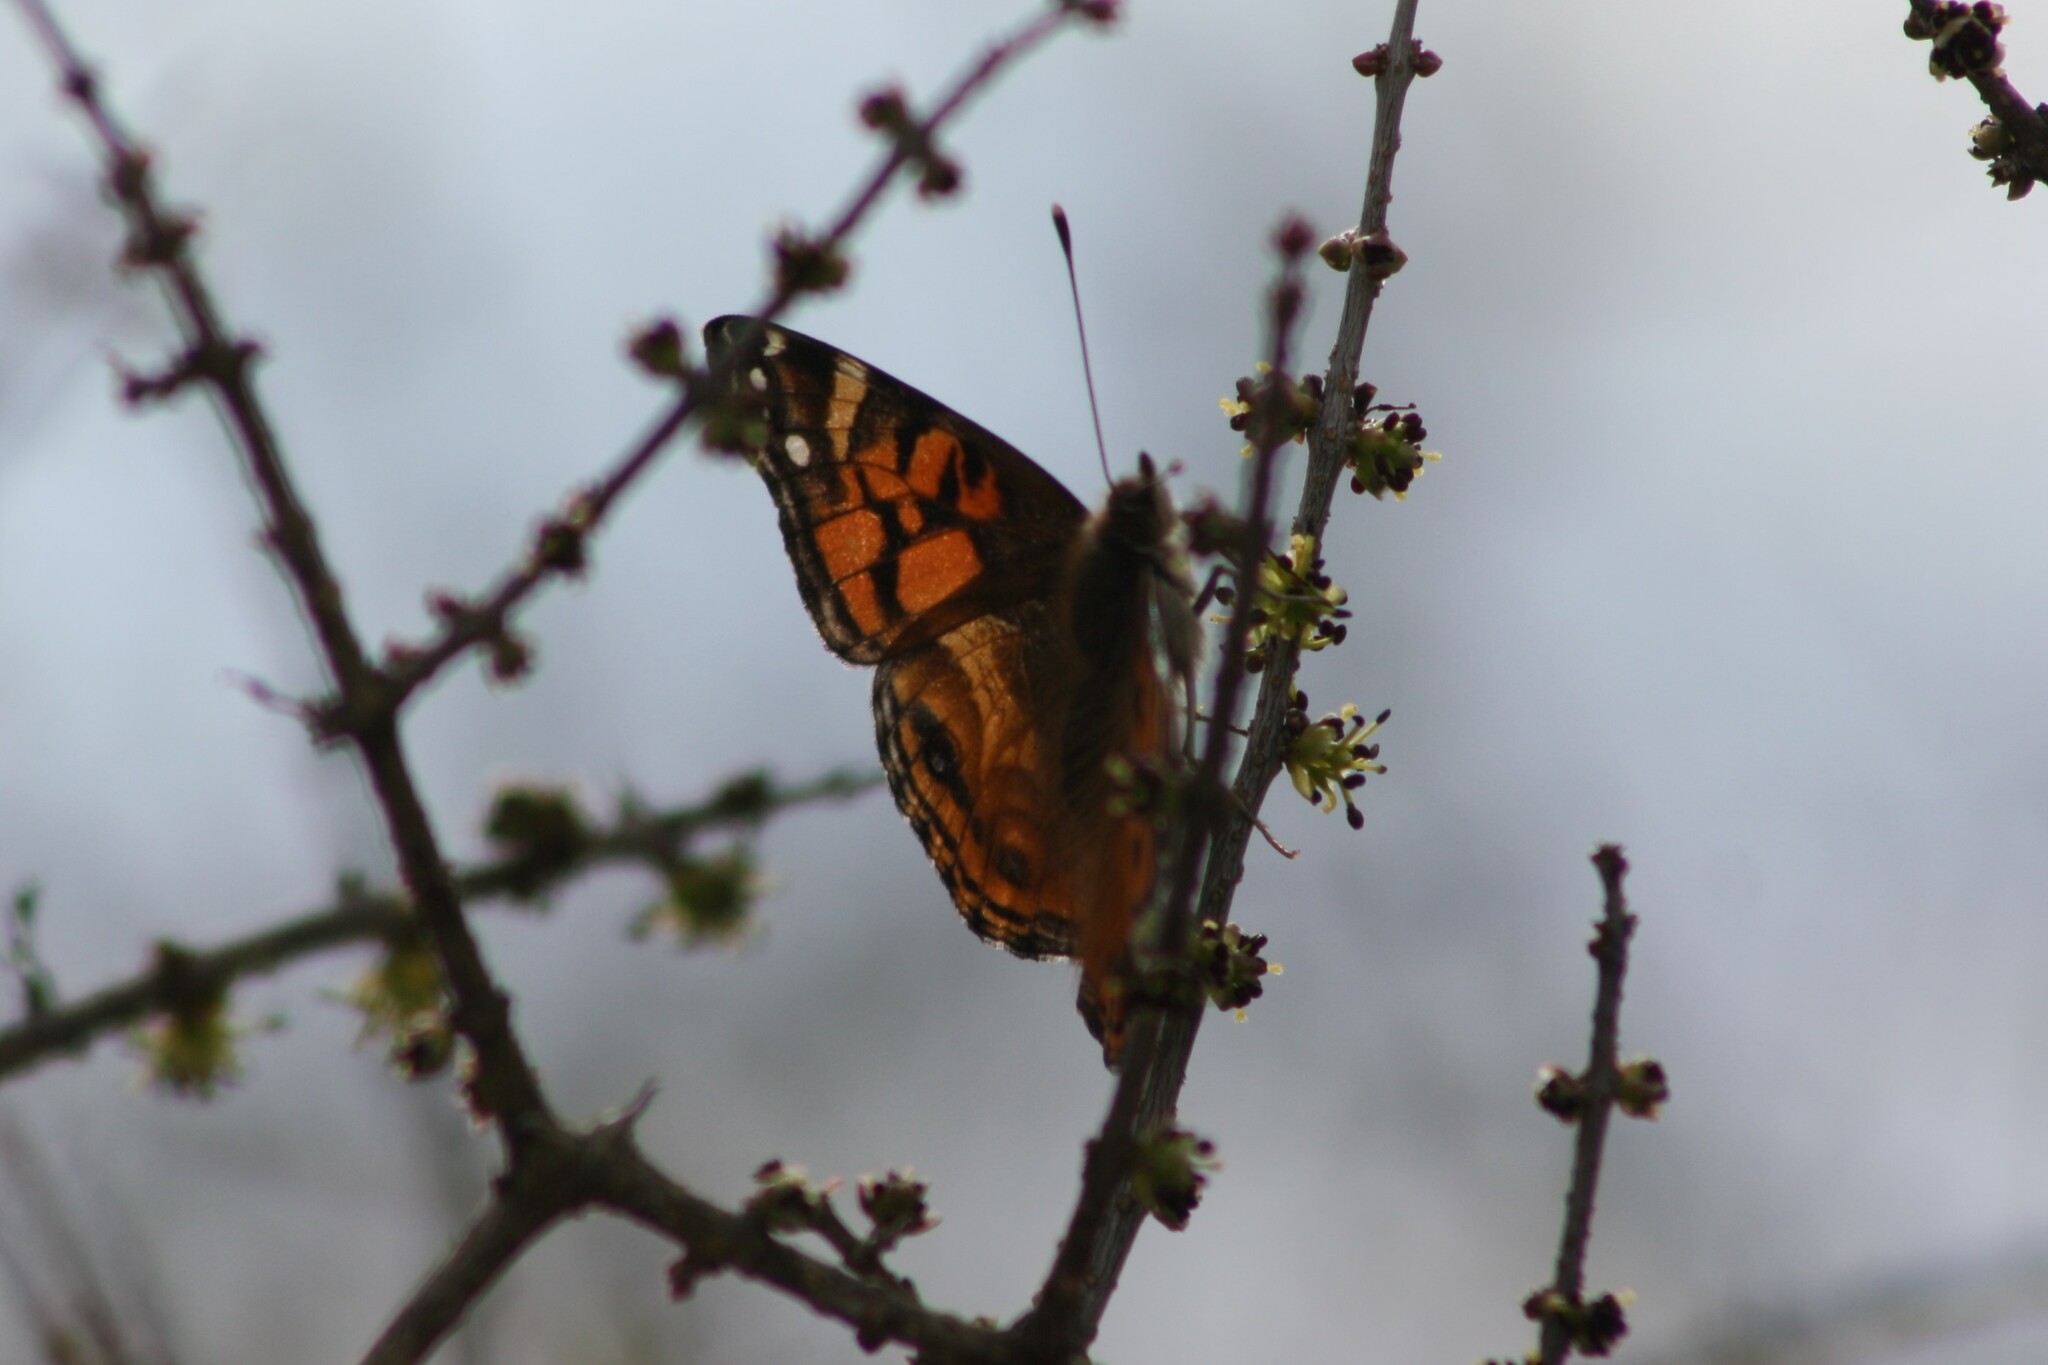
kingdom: Animalia
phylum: Arthropoda
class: Insecta
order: Lepidoptera
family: Nymphalidae
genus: Vanessa
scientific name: Vanessa virginiensis
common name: American lady
